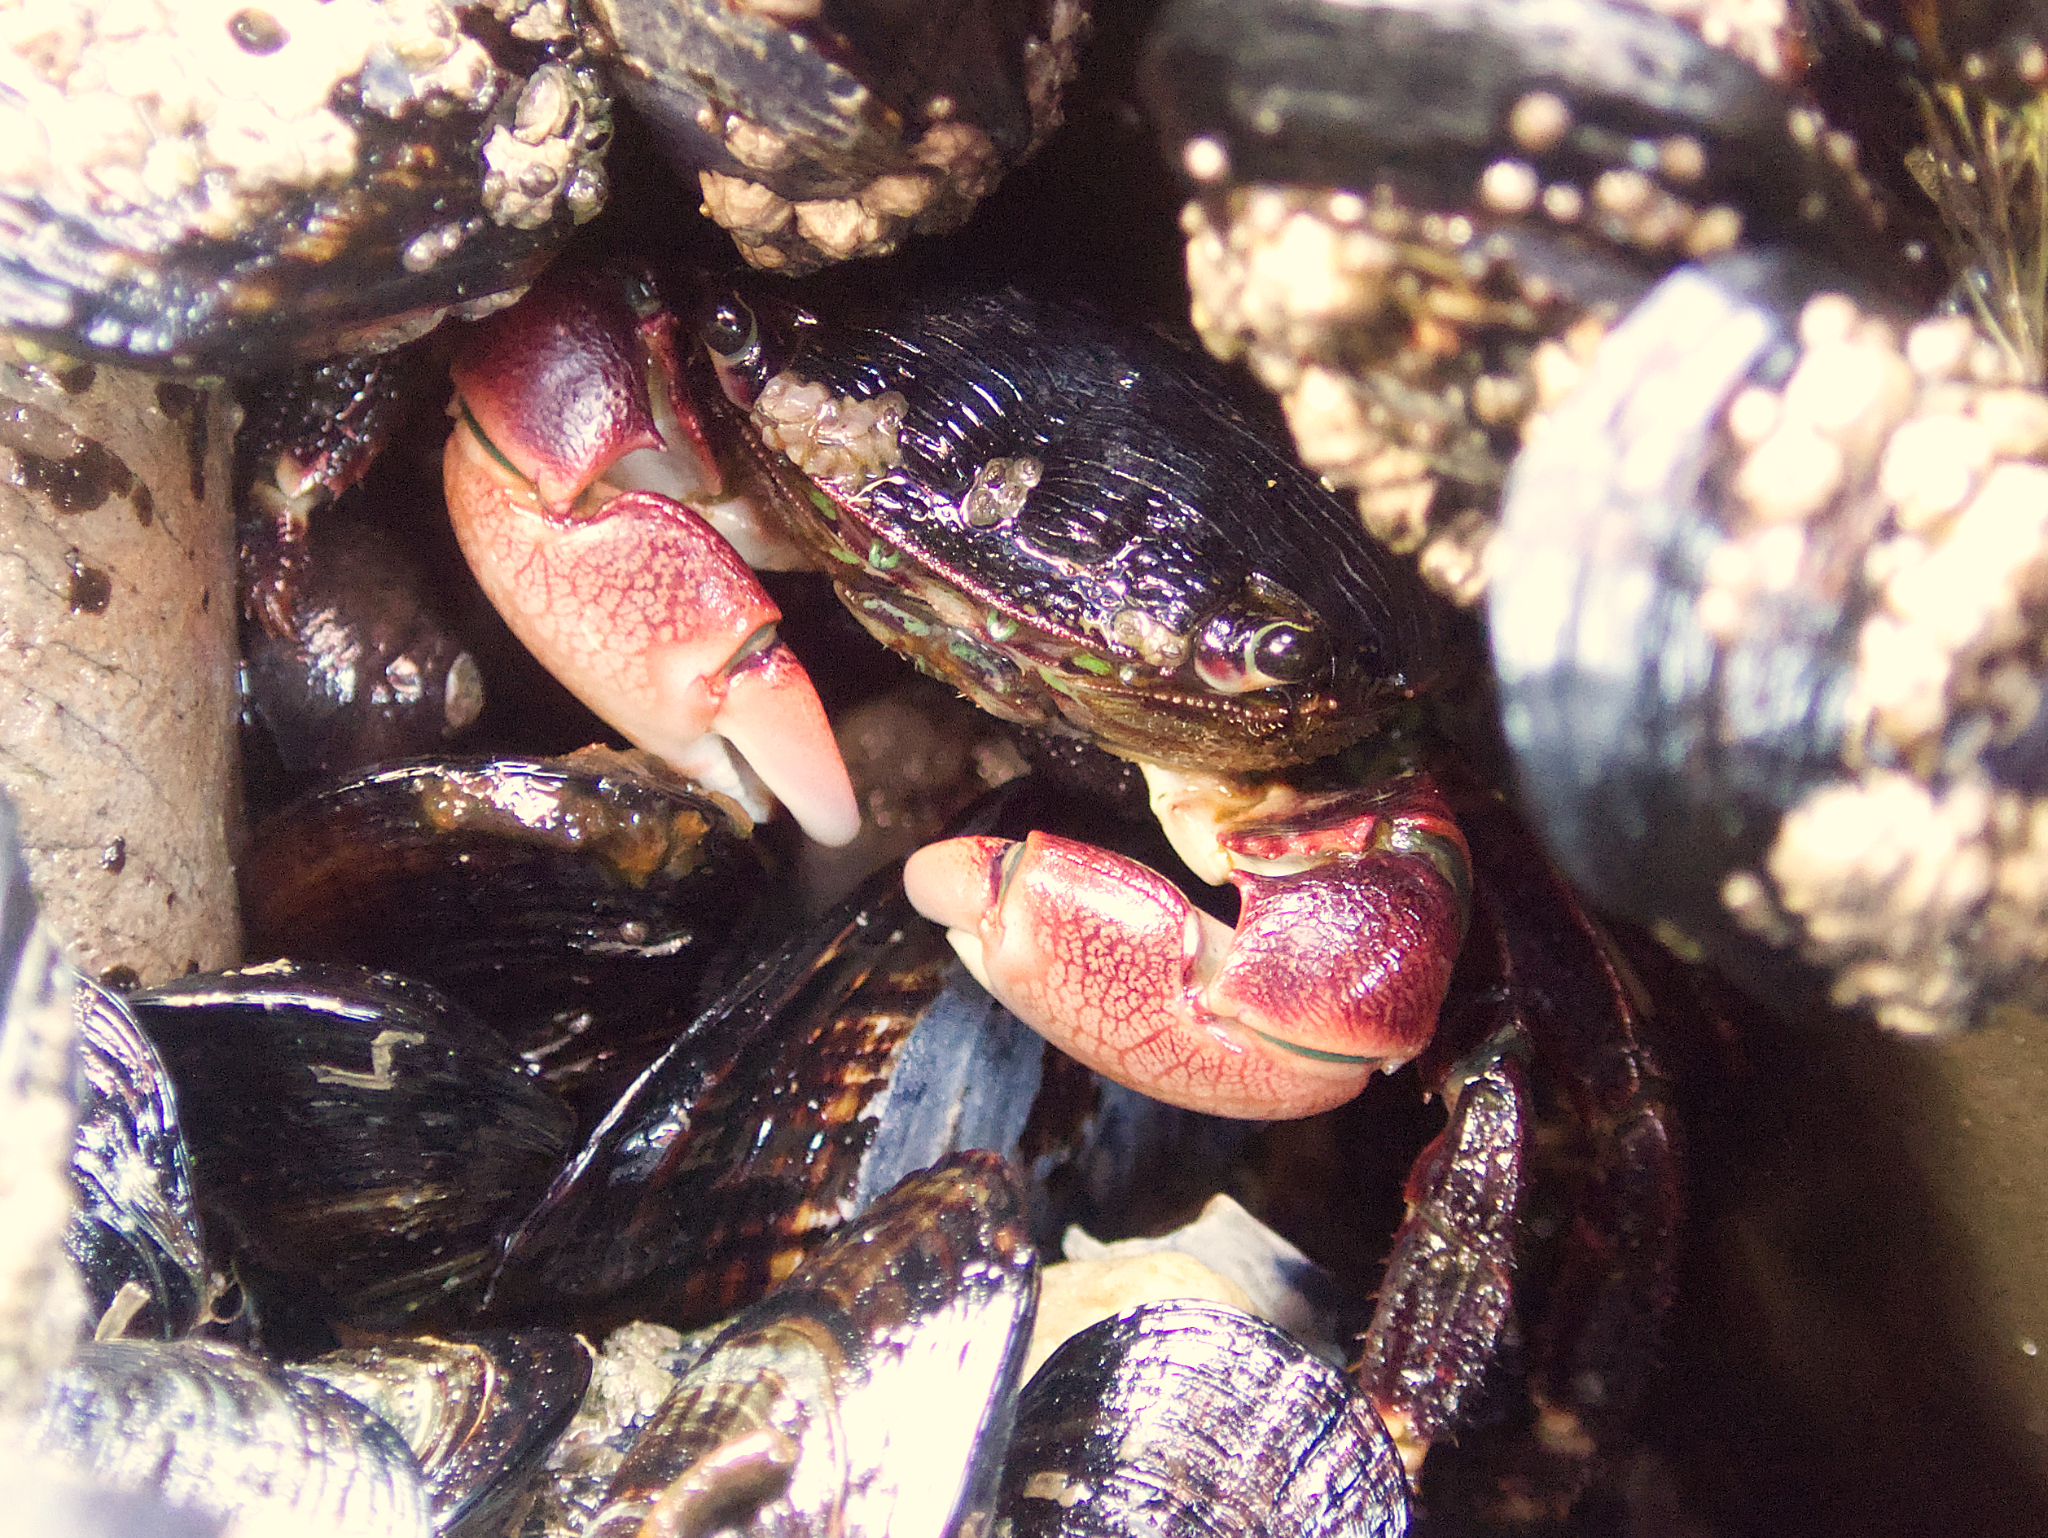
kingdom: Animalia
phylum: Arthropoda
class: Malacostraca
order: Decapoda
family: Grapsidae
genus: Pachygrapsus
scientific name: Pachygrapsus crassipes
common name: Striped shore crab
